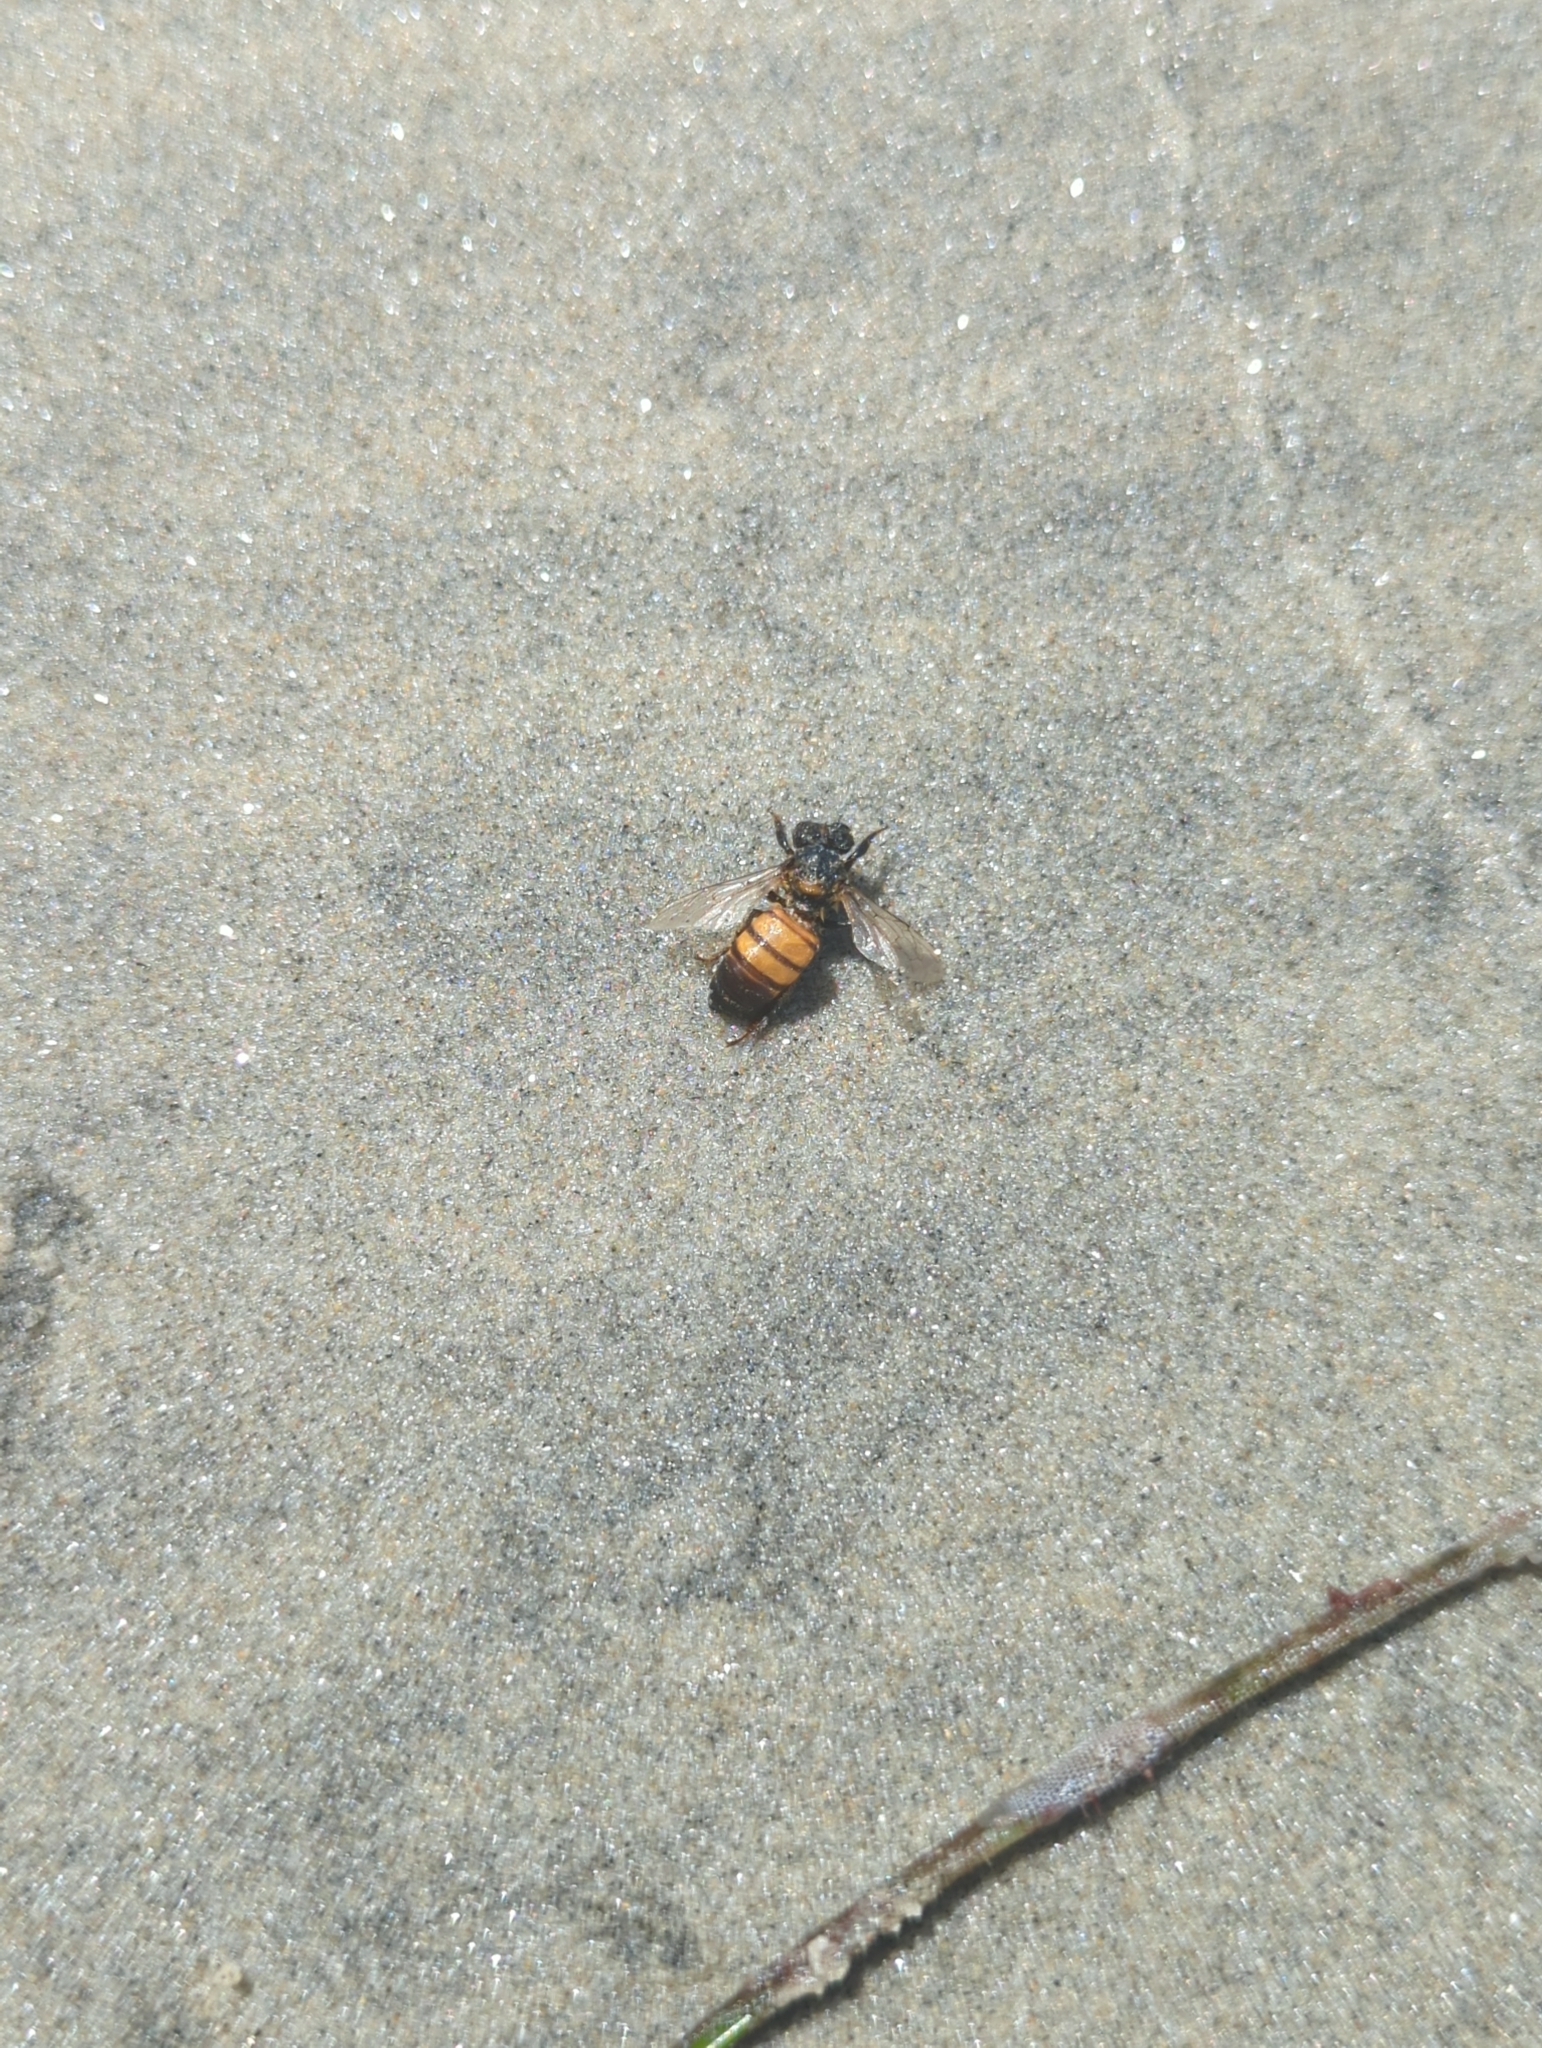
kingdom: Animalia
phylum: Arthropoda
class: Insecta
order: Hymenoptera
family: Apidae
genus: Apis
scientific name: Apis mellifera
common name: Honey bee
